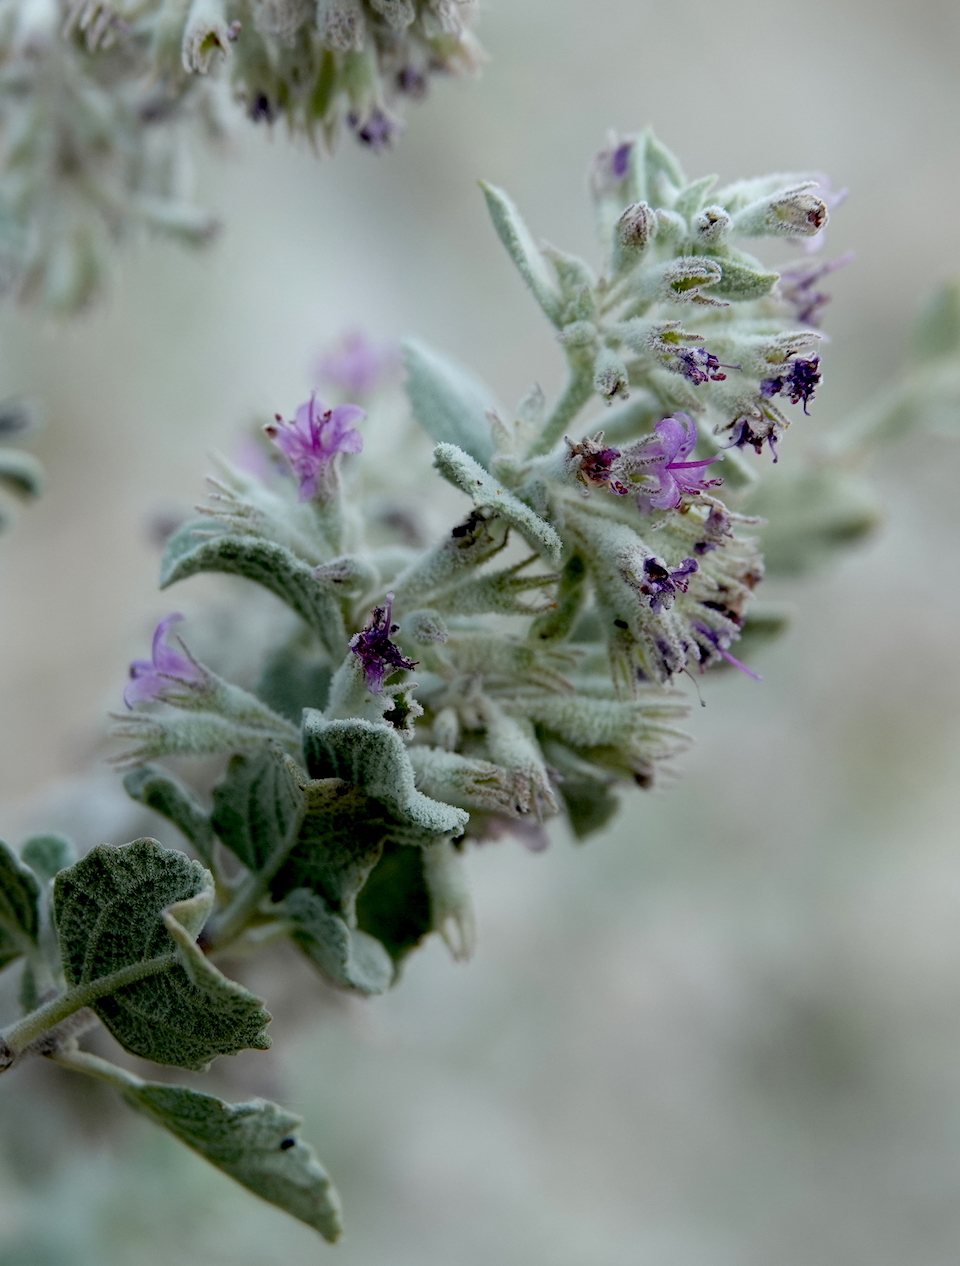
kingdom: Plantae
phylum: Tracheophyta
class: Magnoliopsida
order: Lamiales
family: Lamiaceae
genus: Condea
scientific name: Condea emoryi
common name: Chia
